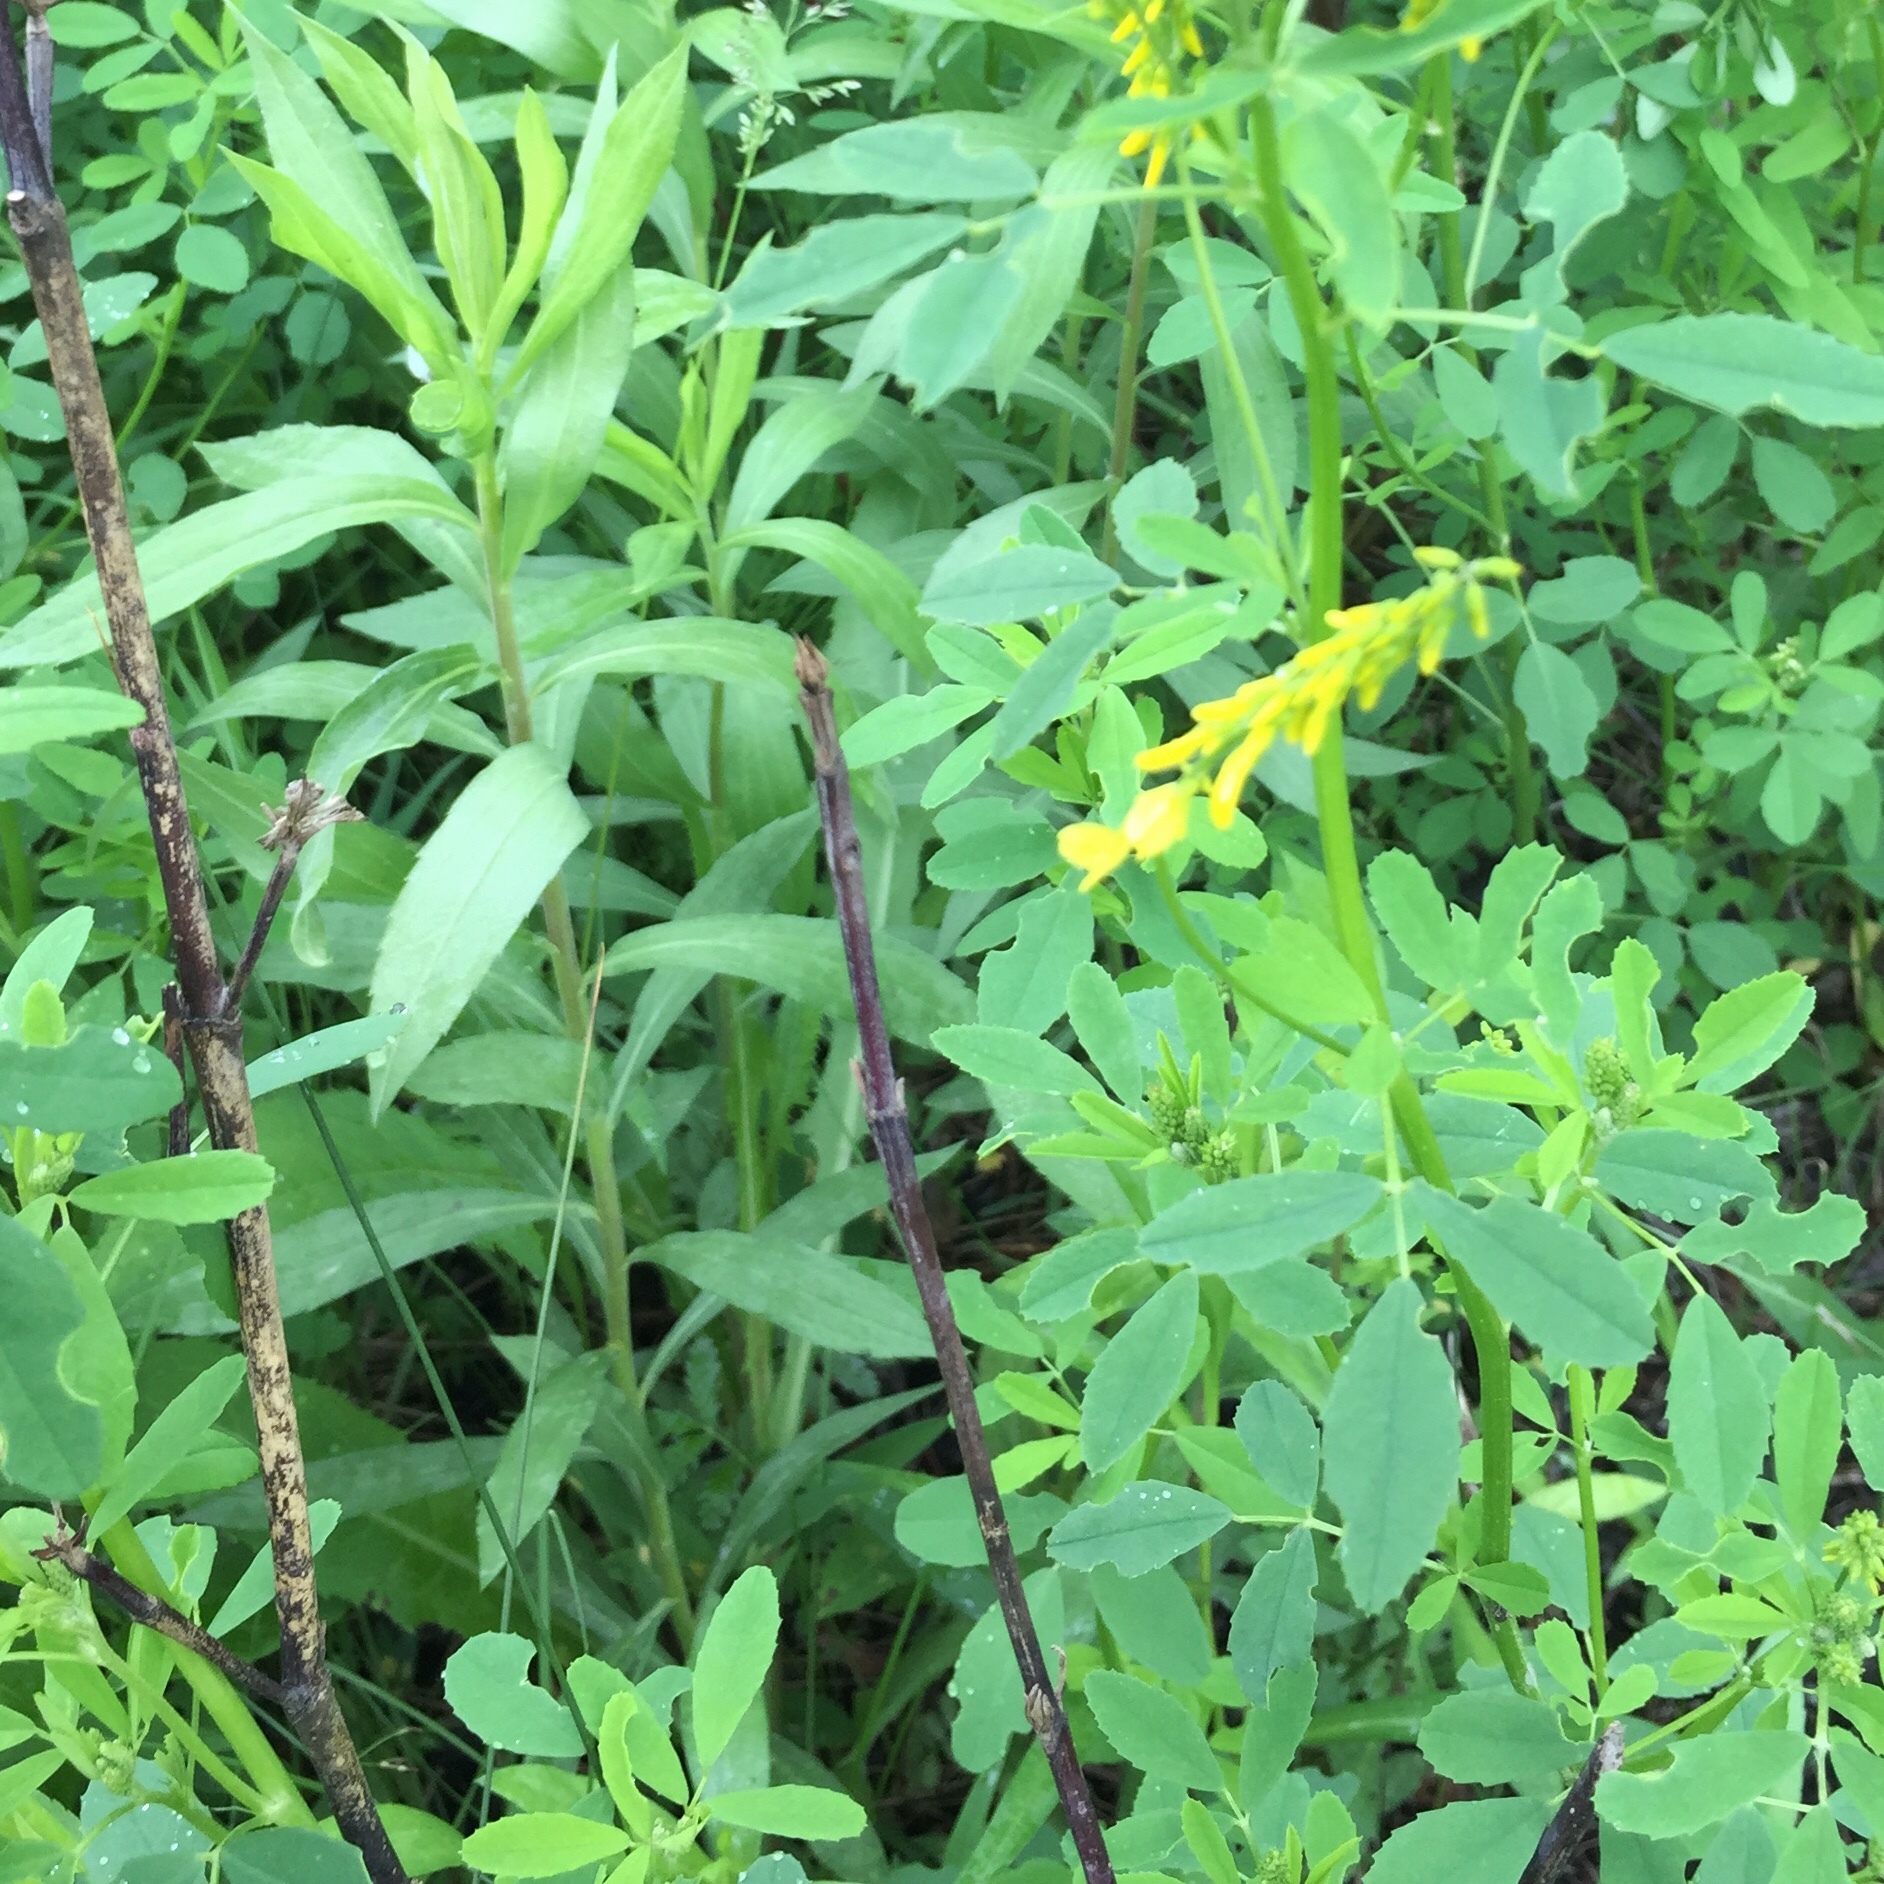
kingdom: Plantae
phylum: Tracheophyta
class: Magnoliopsida
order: Fabales
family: Fabaceae
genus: Melilotus
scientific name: Melilotus officinalis
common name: Sweetclover
